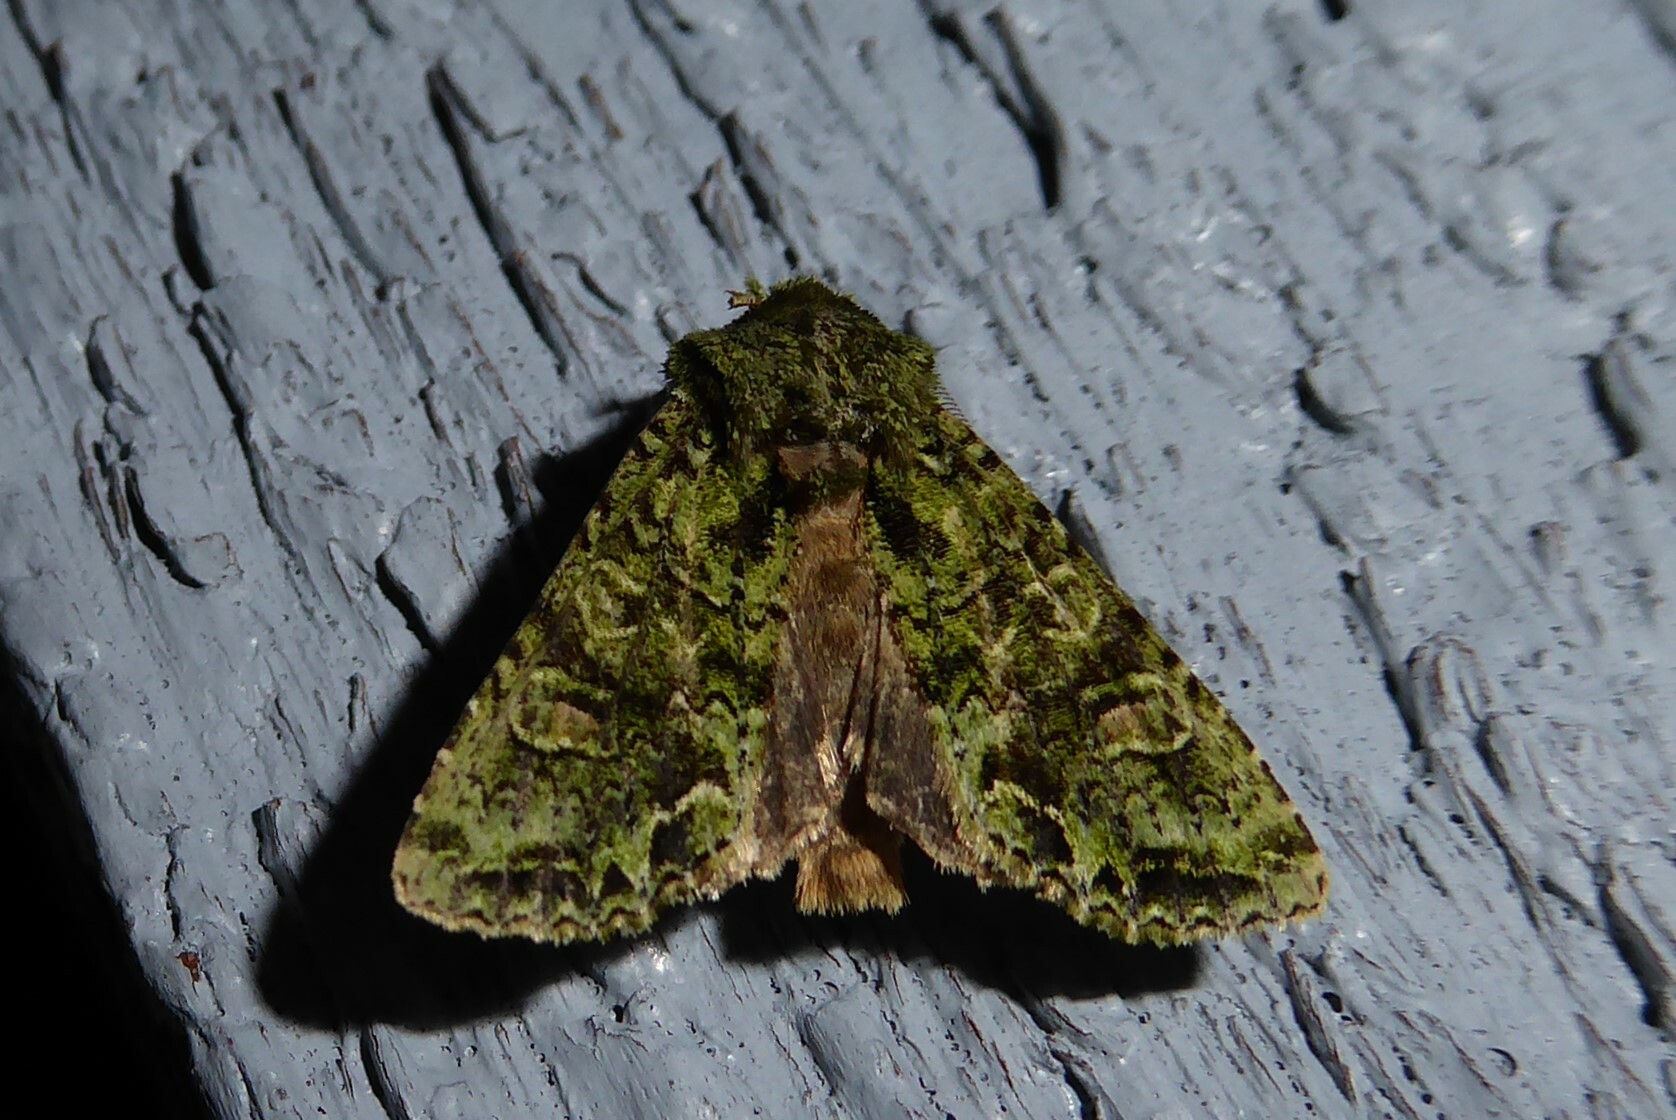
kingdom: Animalia
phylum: Arthropoda
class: Insecta
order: Lepidoptera
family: Noctuidae
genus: Ichneutica
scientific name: Ichneutica
